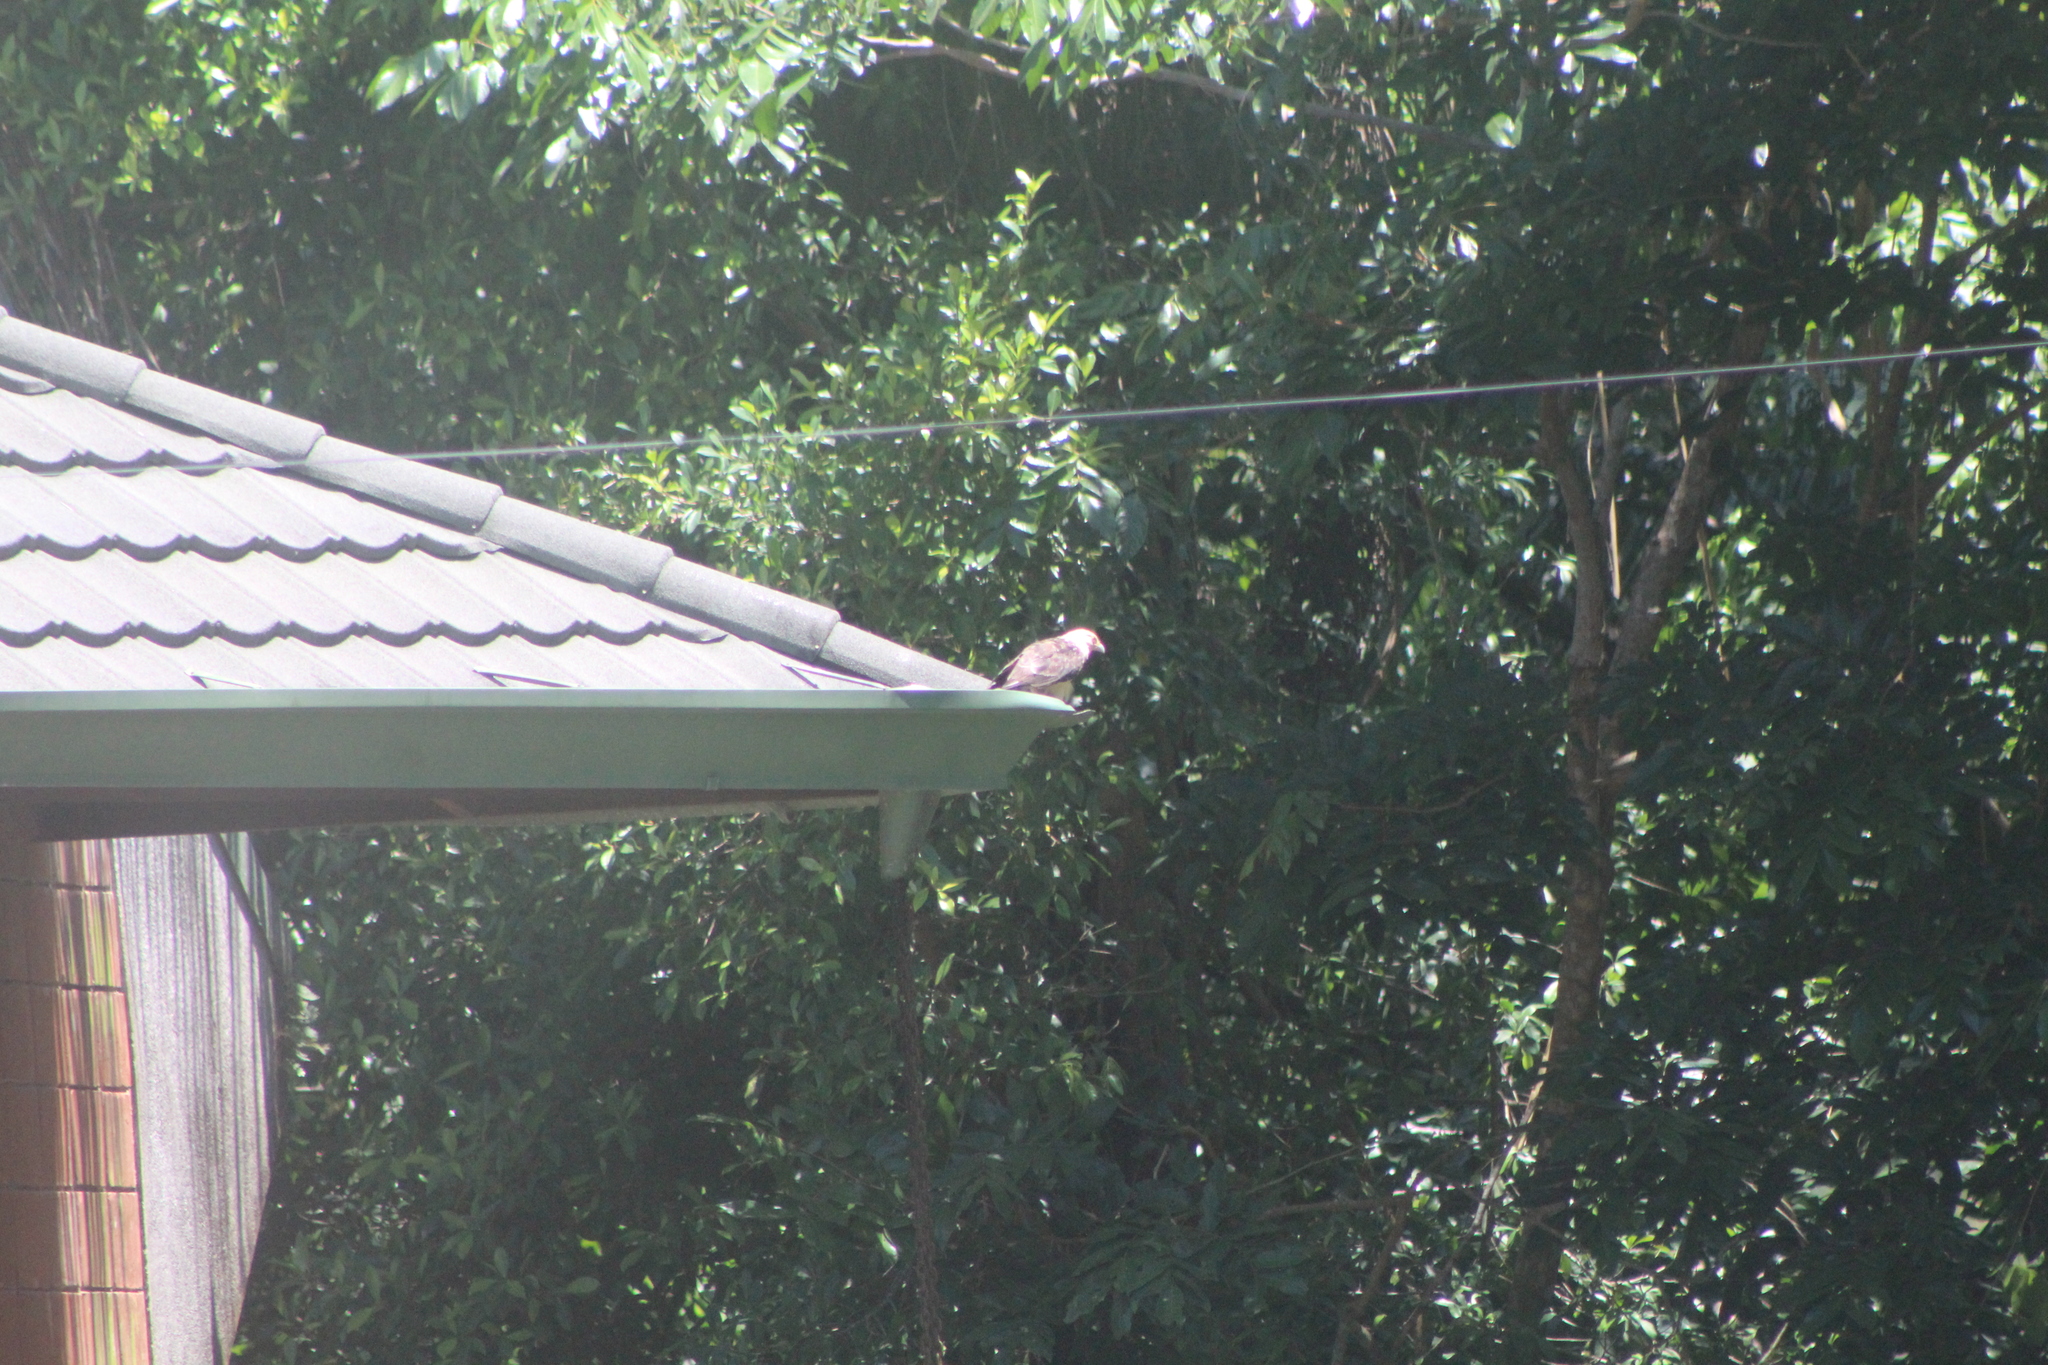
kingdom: Animalia
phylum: Chordata
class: Aves
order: Falconiformes
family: Falconidae
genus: Daptrius
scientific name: Daptrius
